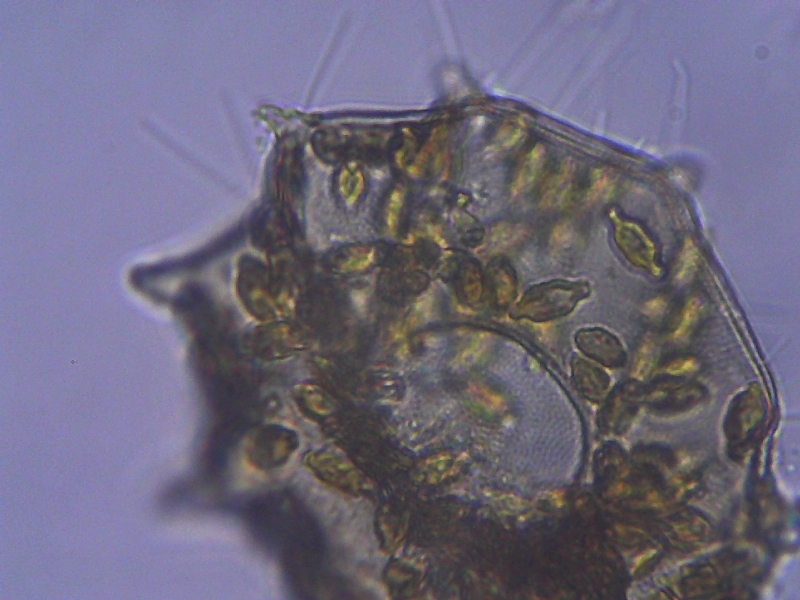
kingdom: Protozoa
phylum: Amoebozoa
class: Lobosa
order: Arcellinida
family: Arcellidae
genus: Galeripora
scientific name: Galeripora
